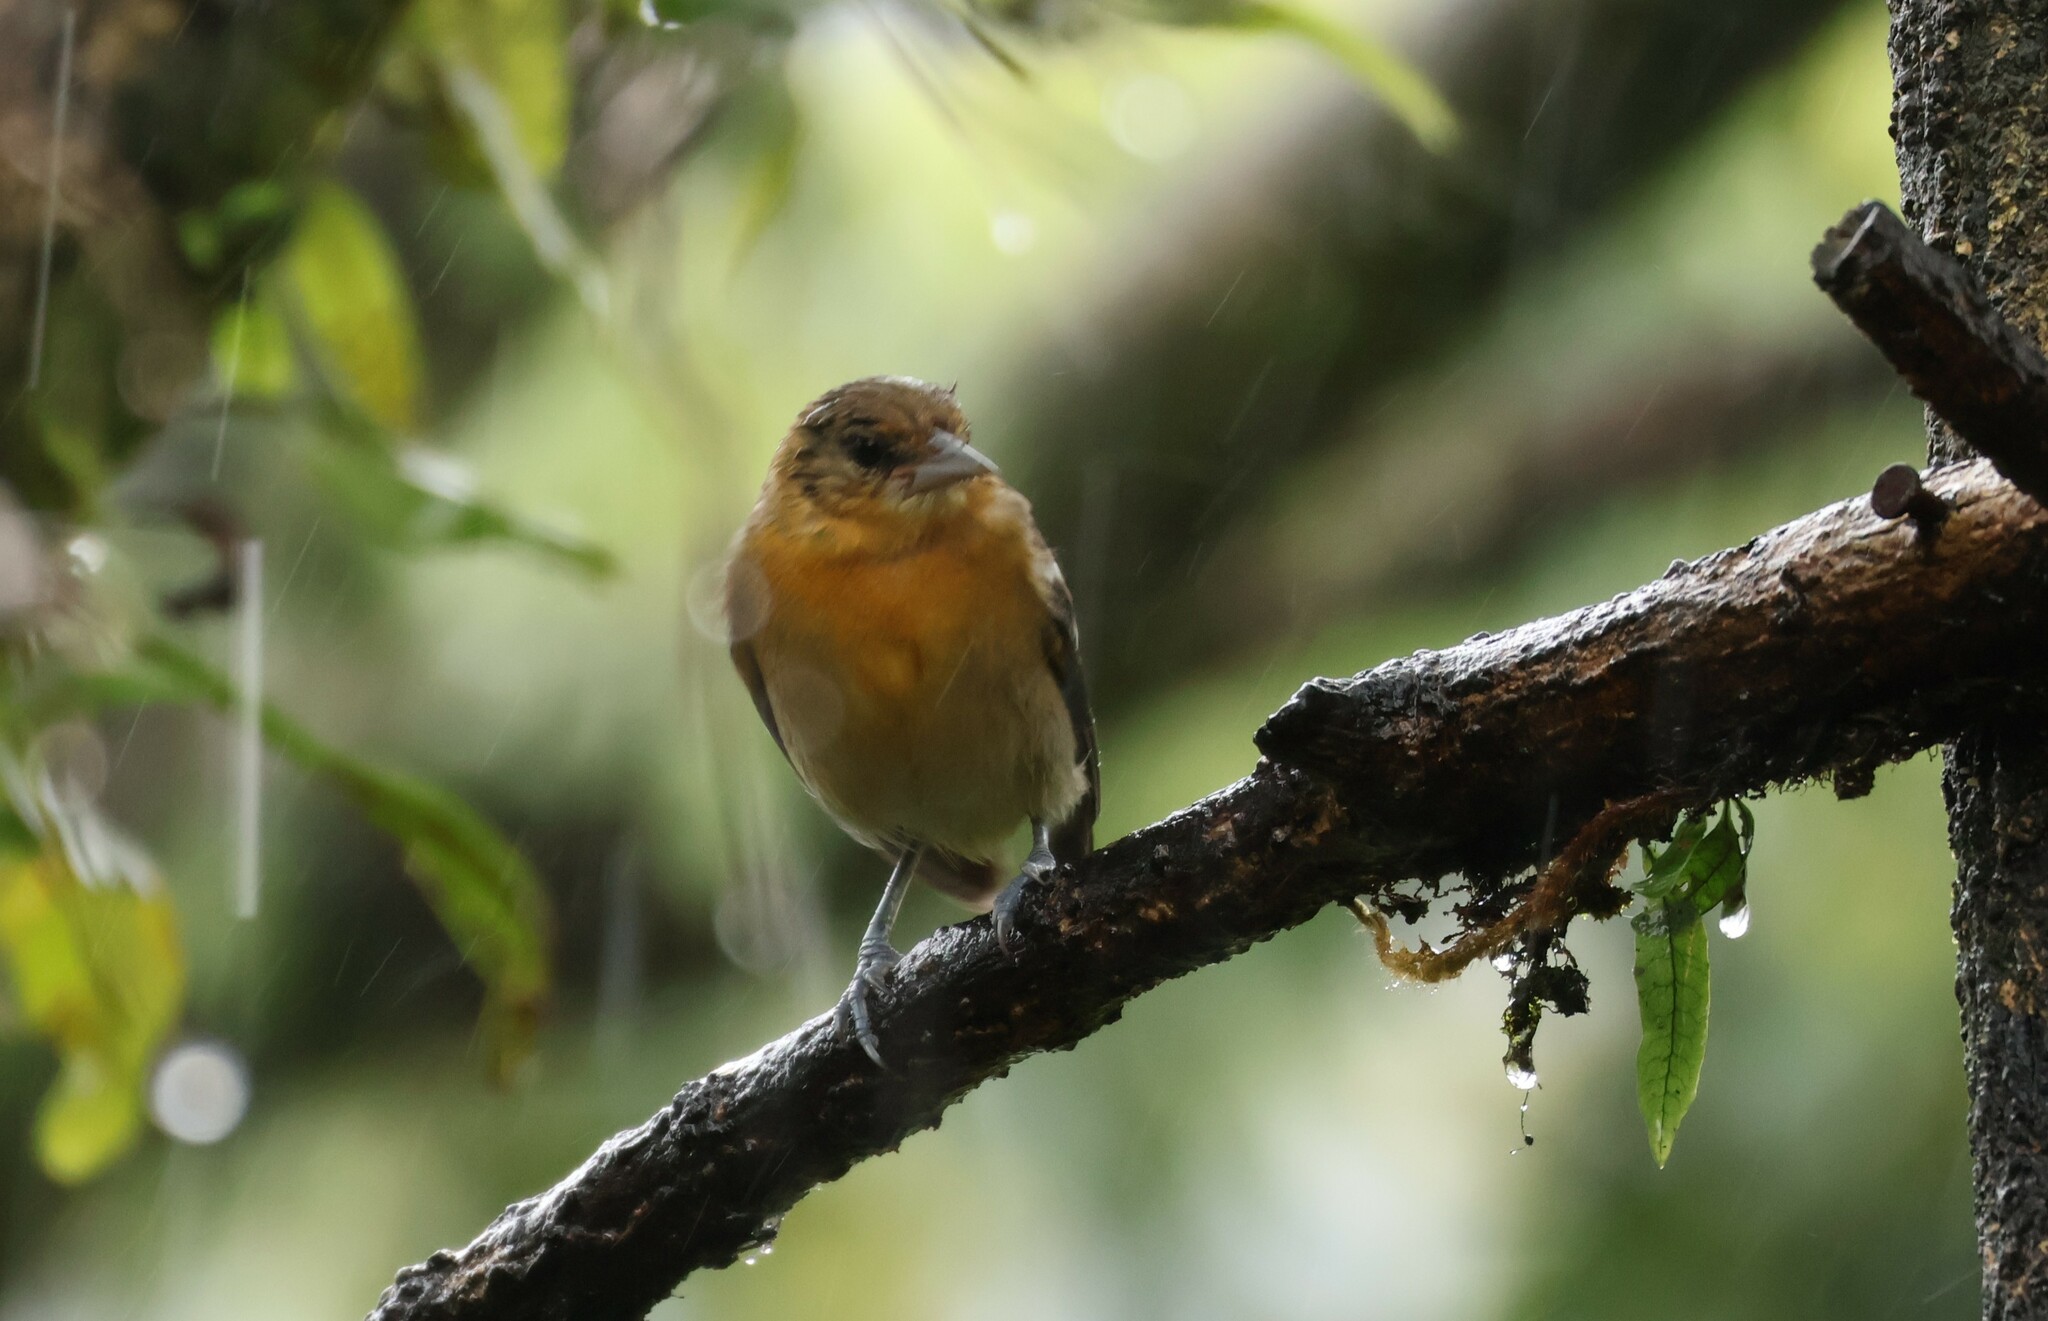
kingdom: Animalia
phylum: Chordata
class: Aves
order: Passeriformes
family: Icteridae
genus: Icterus
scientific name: Icterus galbula
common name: Baltimore oriole
